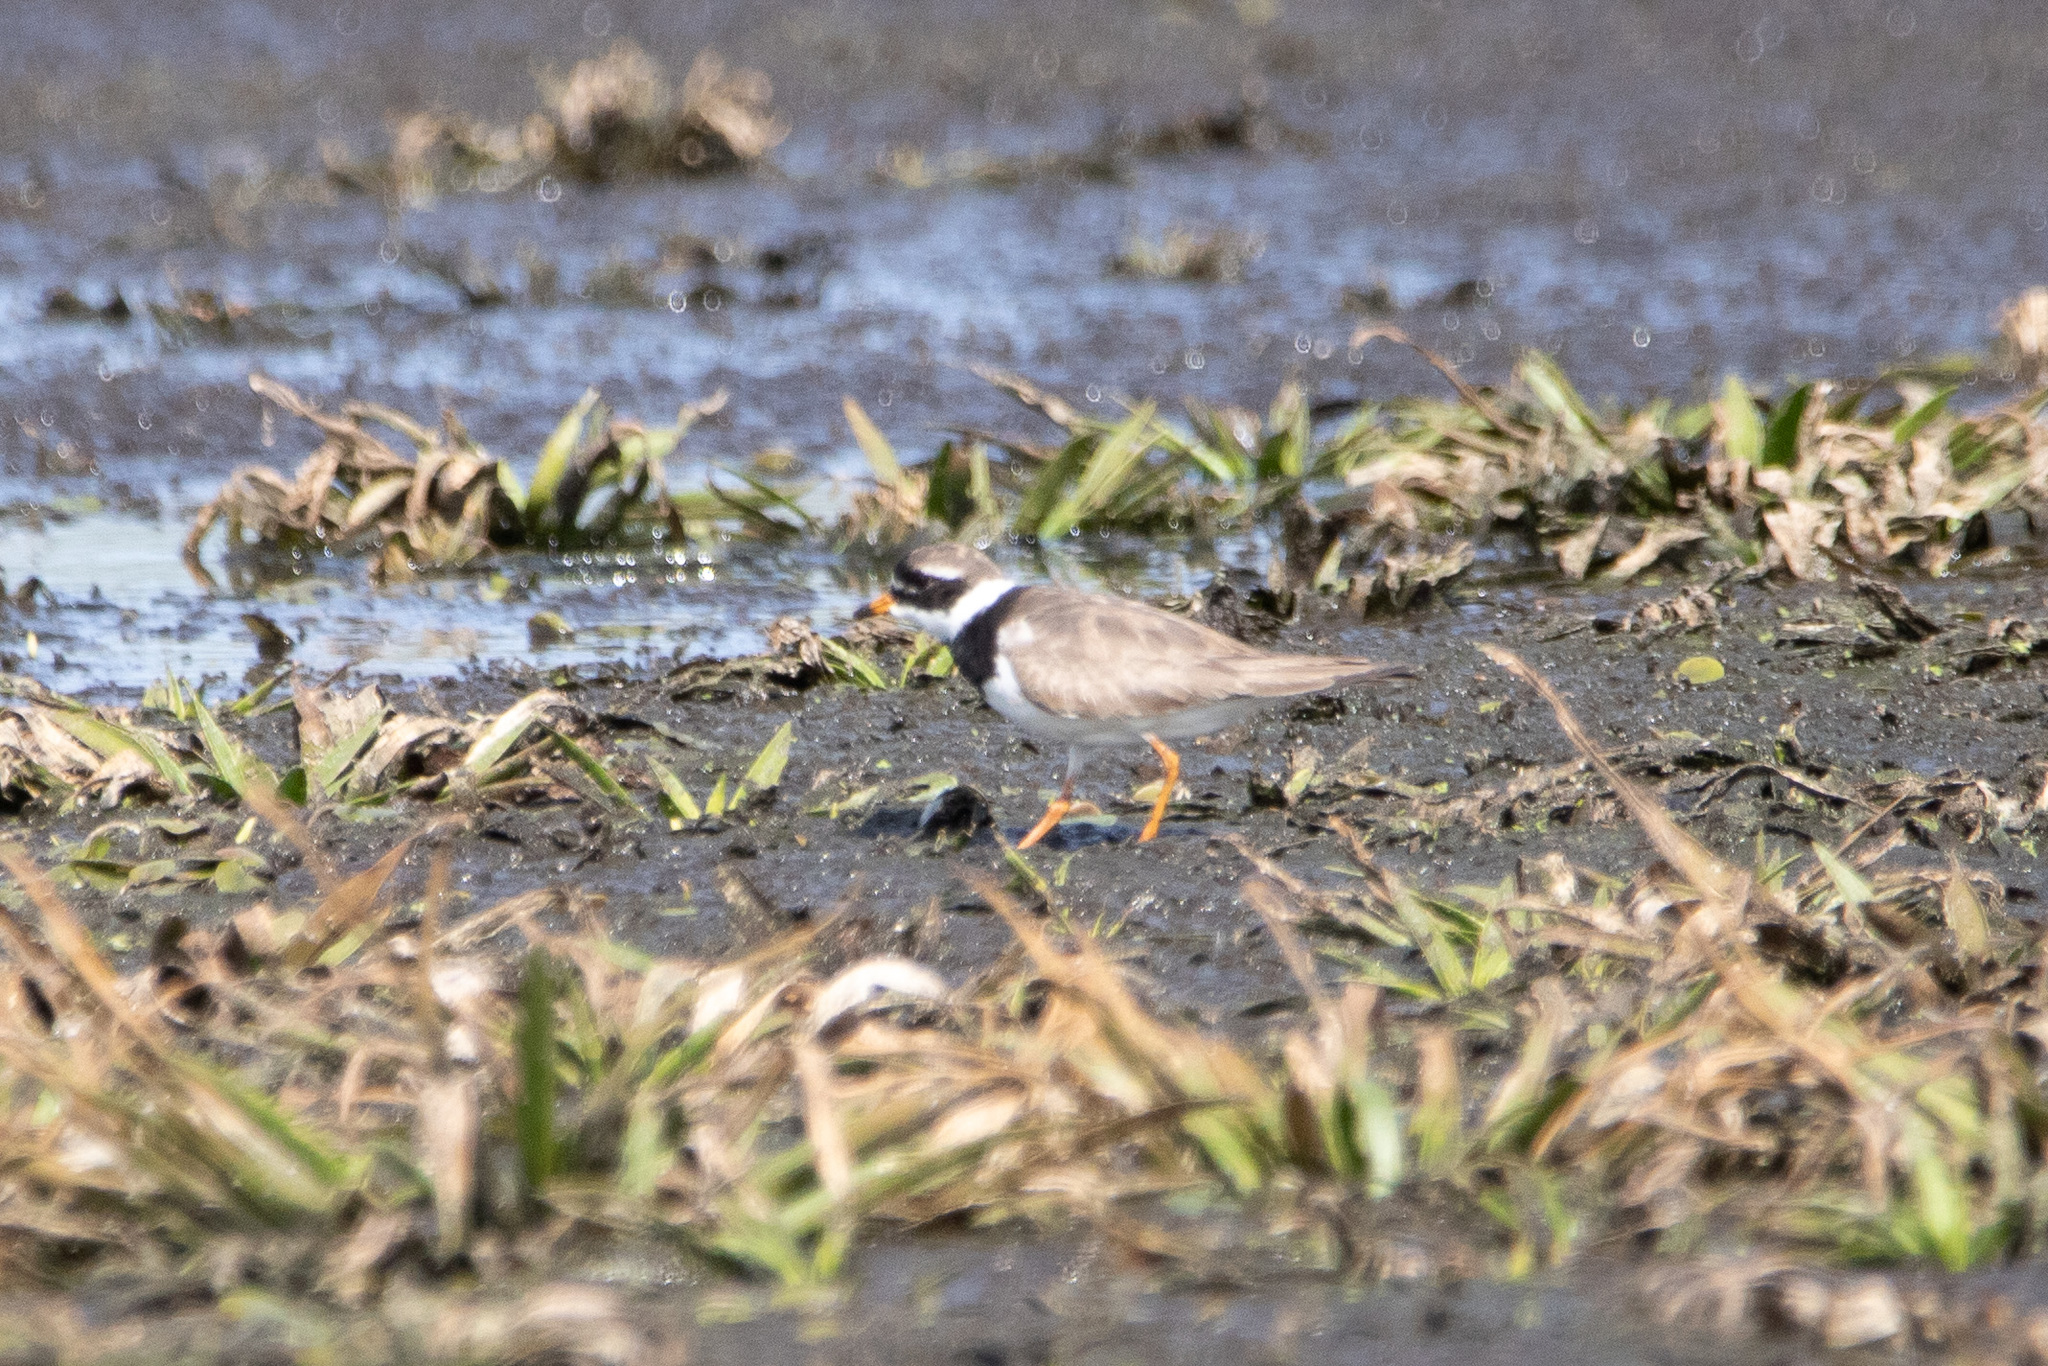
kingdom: Animalia
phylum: Chordata
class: Aves
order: Charadriiformes
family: Charadriidae
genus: Charadrius
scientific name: Charadrius hiaticula
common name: Common ringed plover
